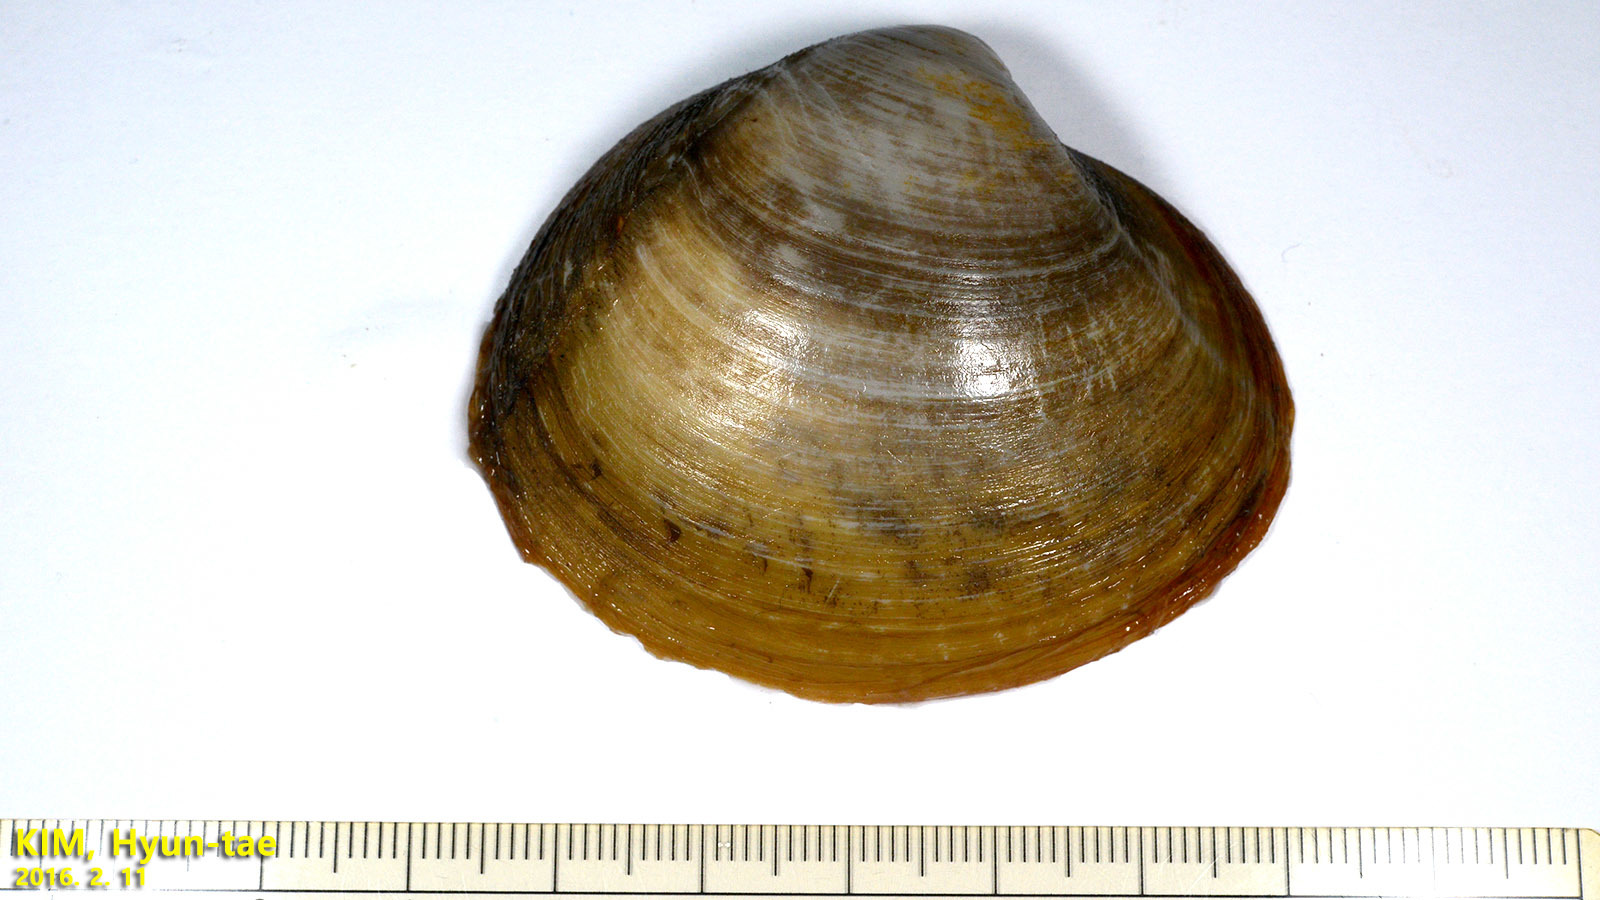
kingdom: Animalia
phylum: Mollusca
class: Bivalvia
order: Venerida
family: Mactridae
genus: Spisula
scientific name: Spisula sachalinensis
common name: Sakhalin surf clam
